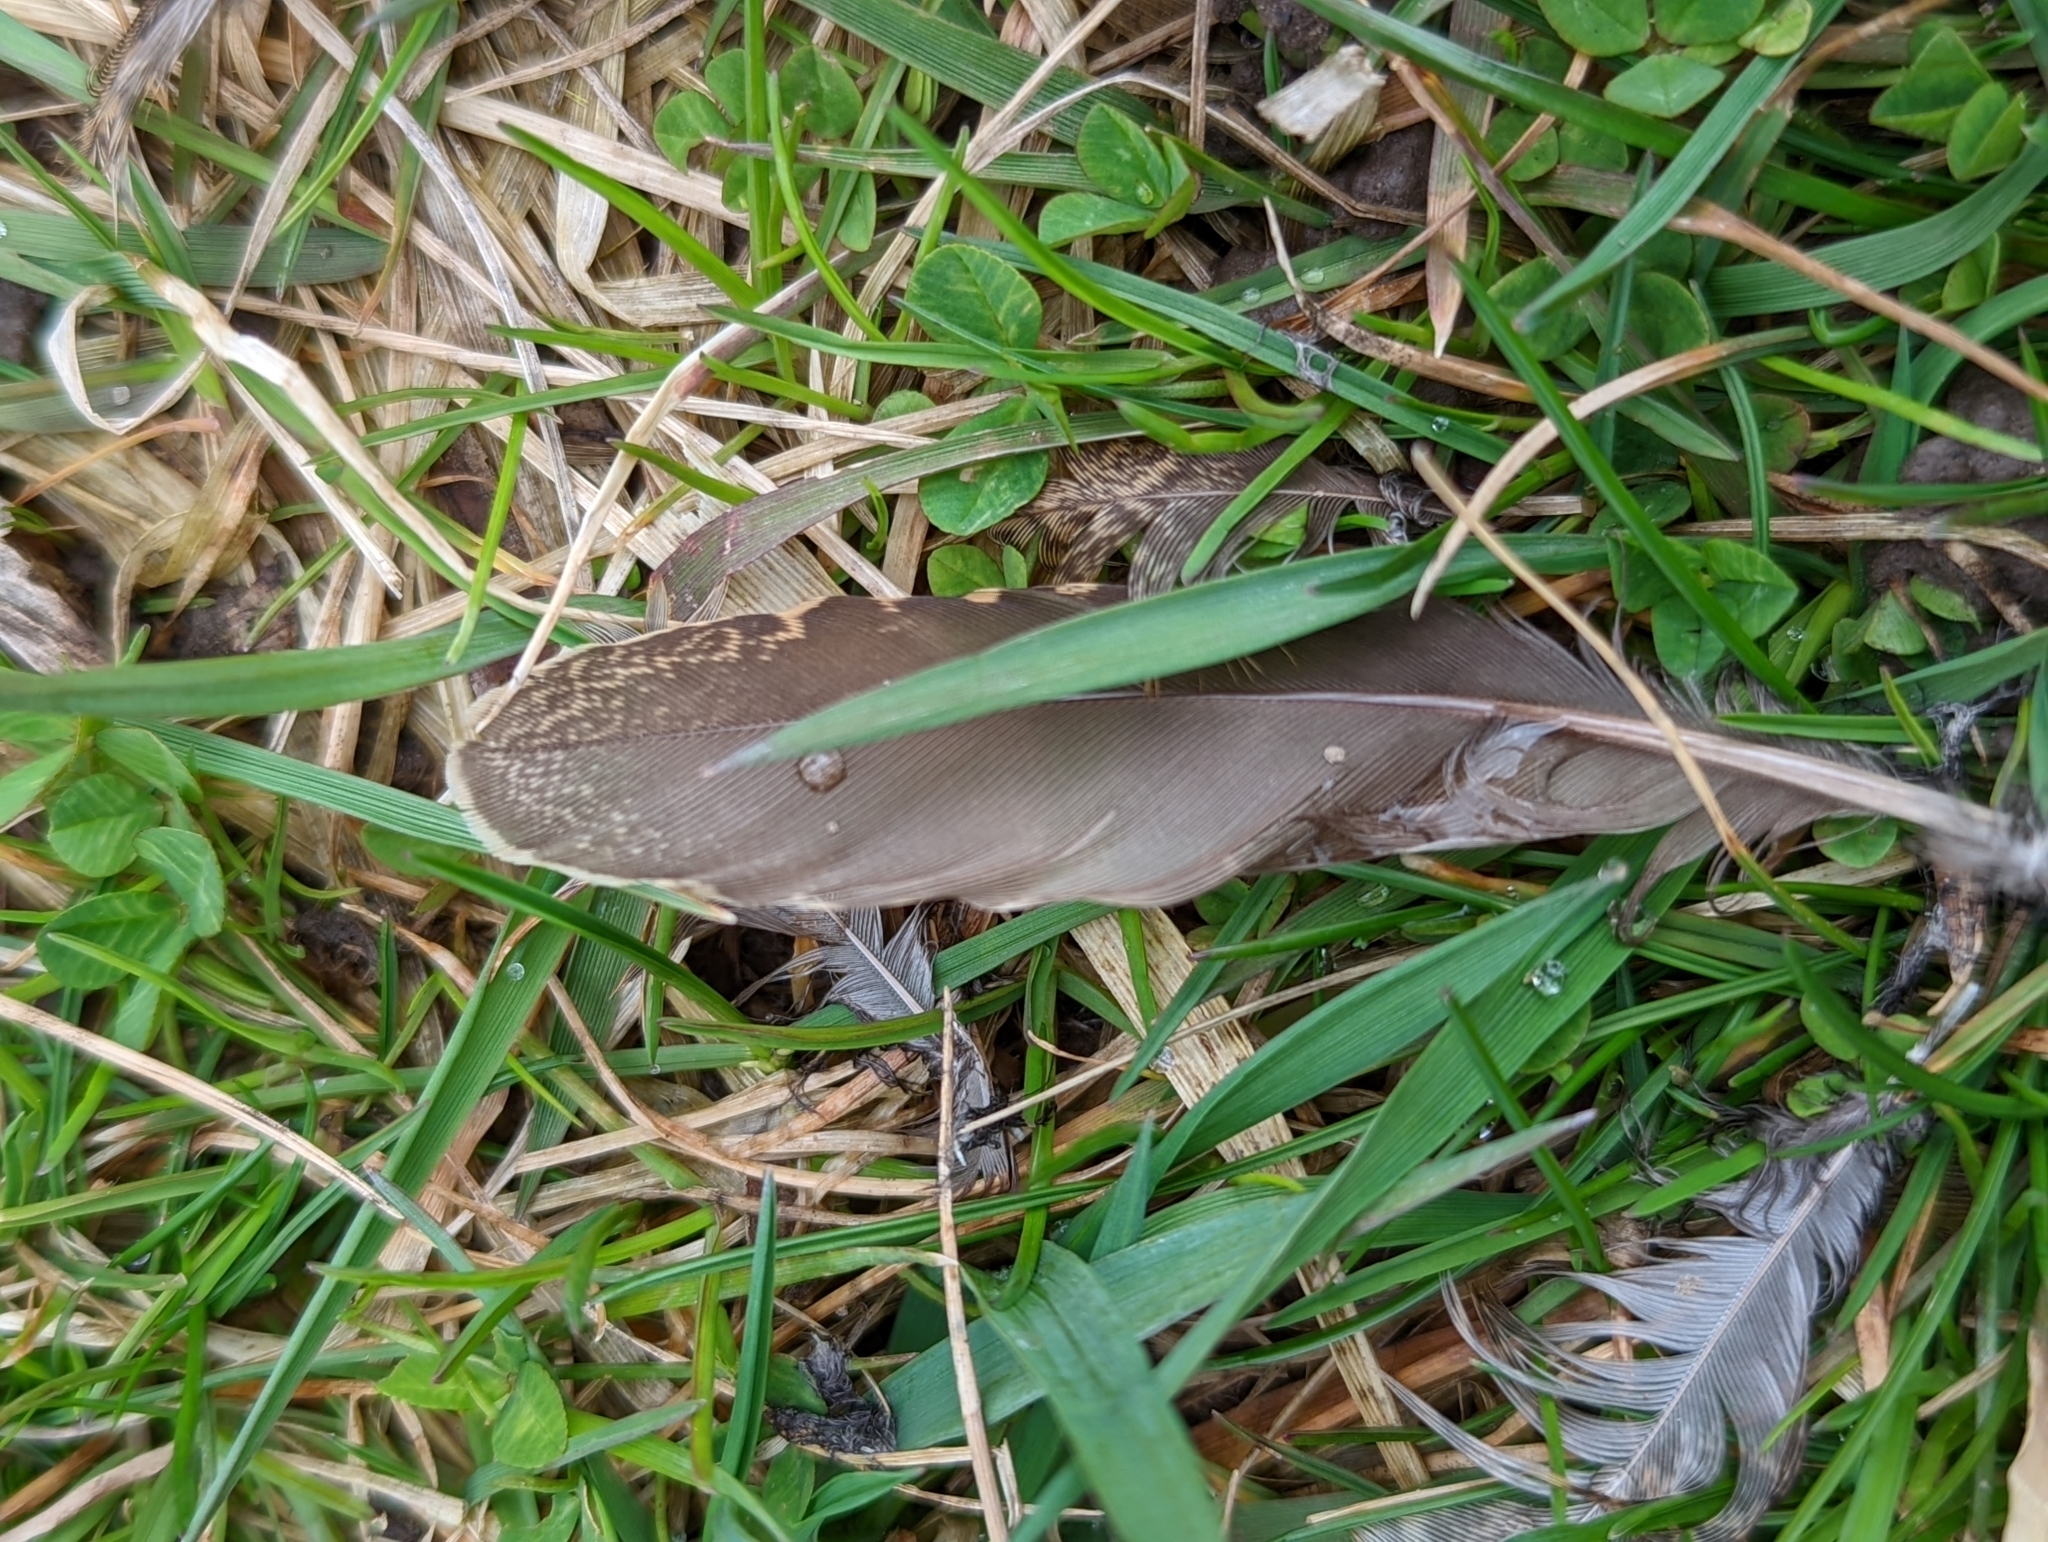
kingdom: Animalia
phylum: Chordata
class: Aves
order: Charadriiformes
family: Scolopacidae
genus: Scolopax
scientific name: Scolopax minor
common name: American woodcock
